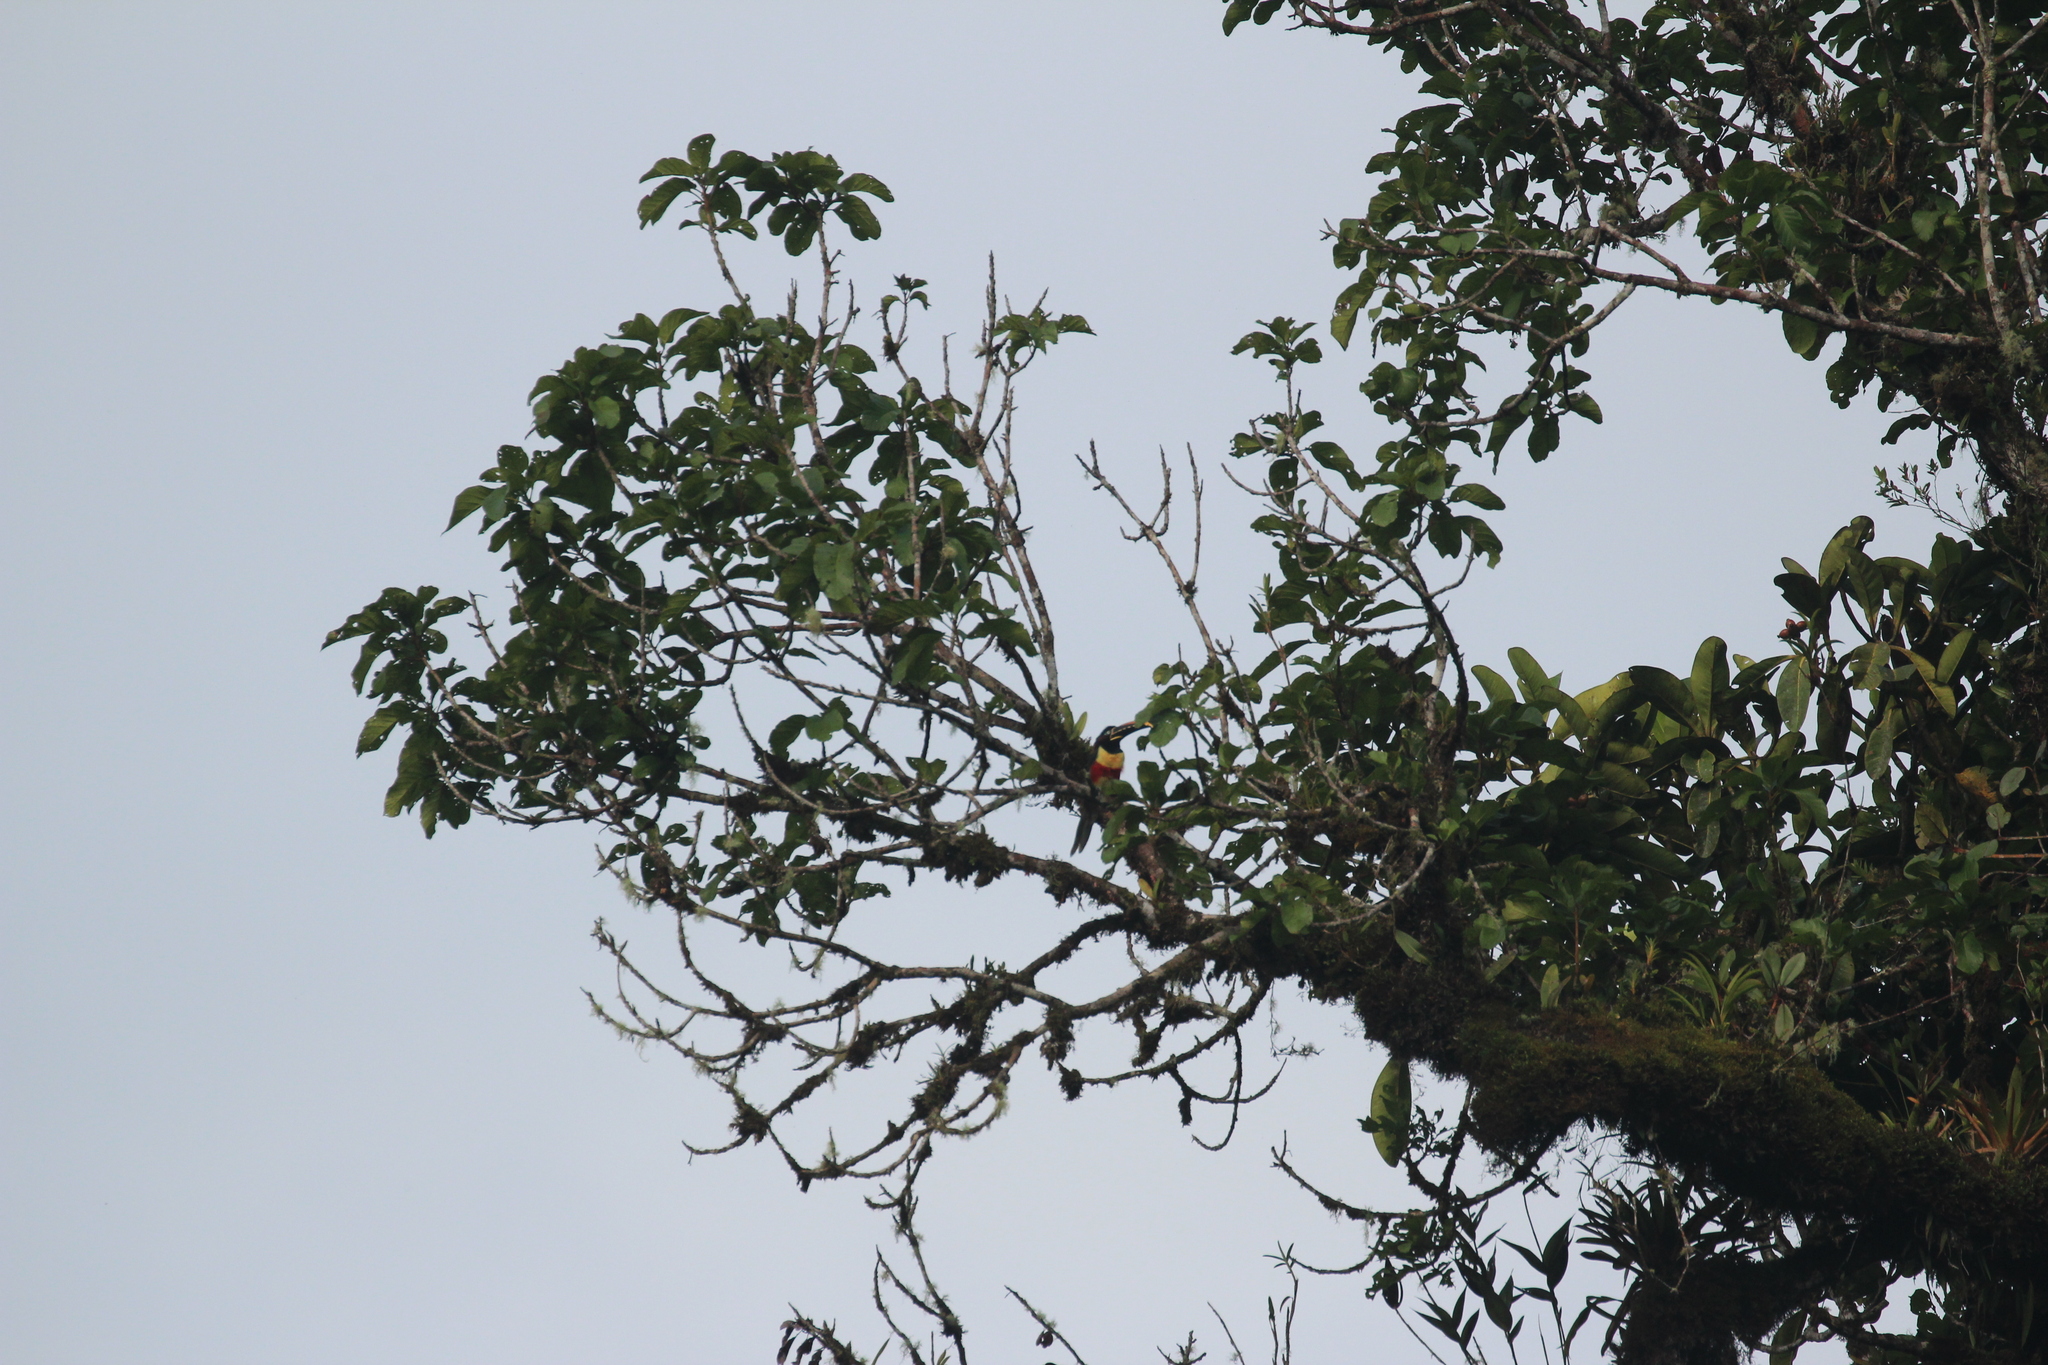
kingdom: Animalia
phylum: Chordata
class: Aves
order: Piciformes
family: Ramphastidae
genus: Pteroglossus
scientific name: Pteroglossus castanotis
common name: Chestnut-eared aracari
